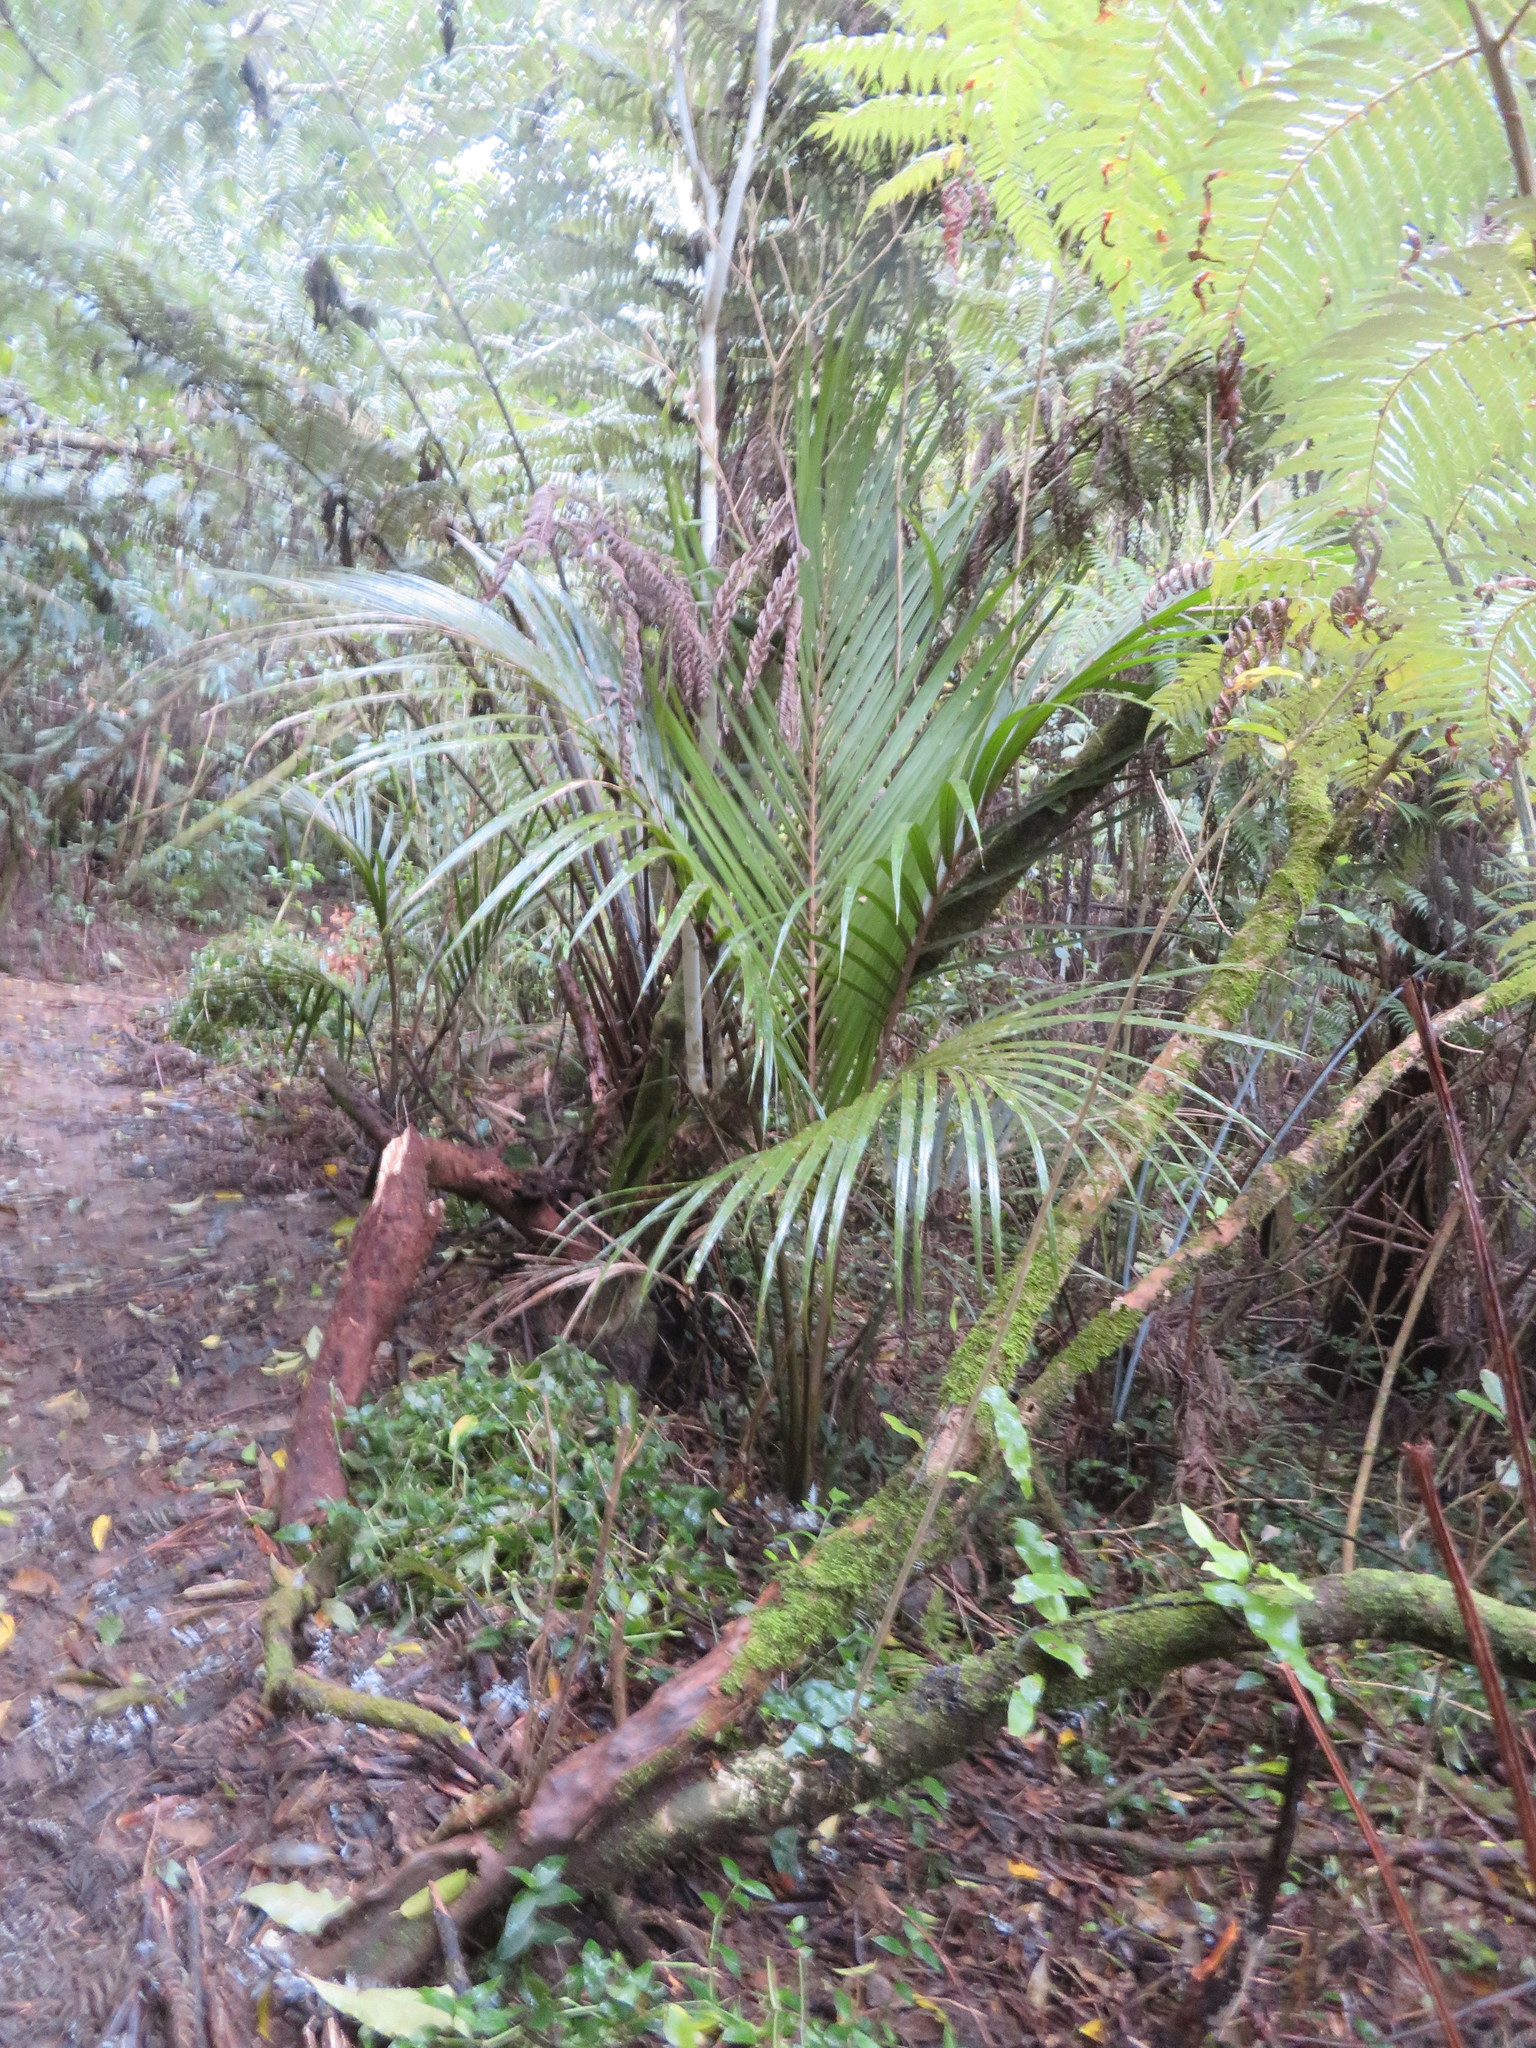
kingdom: Plantae
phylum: Tracheophyta
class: Polypodiopsida
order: Polypodiales
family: Polypodiaceae
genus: Lecanopteris
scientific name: Lecanopteris pustulata
